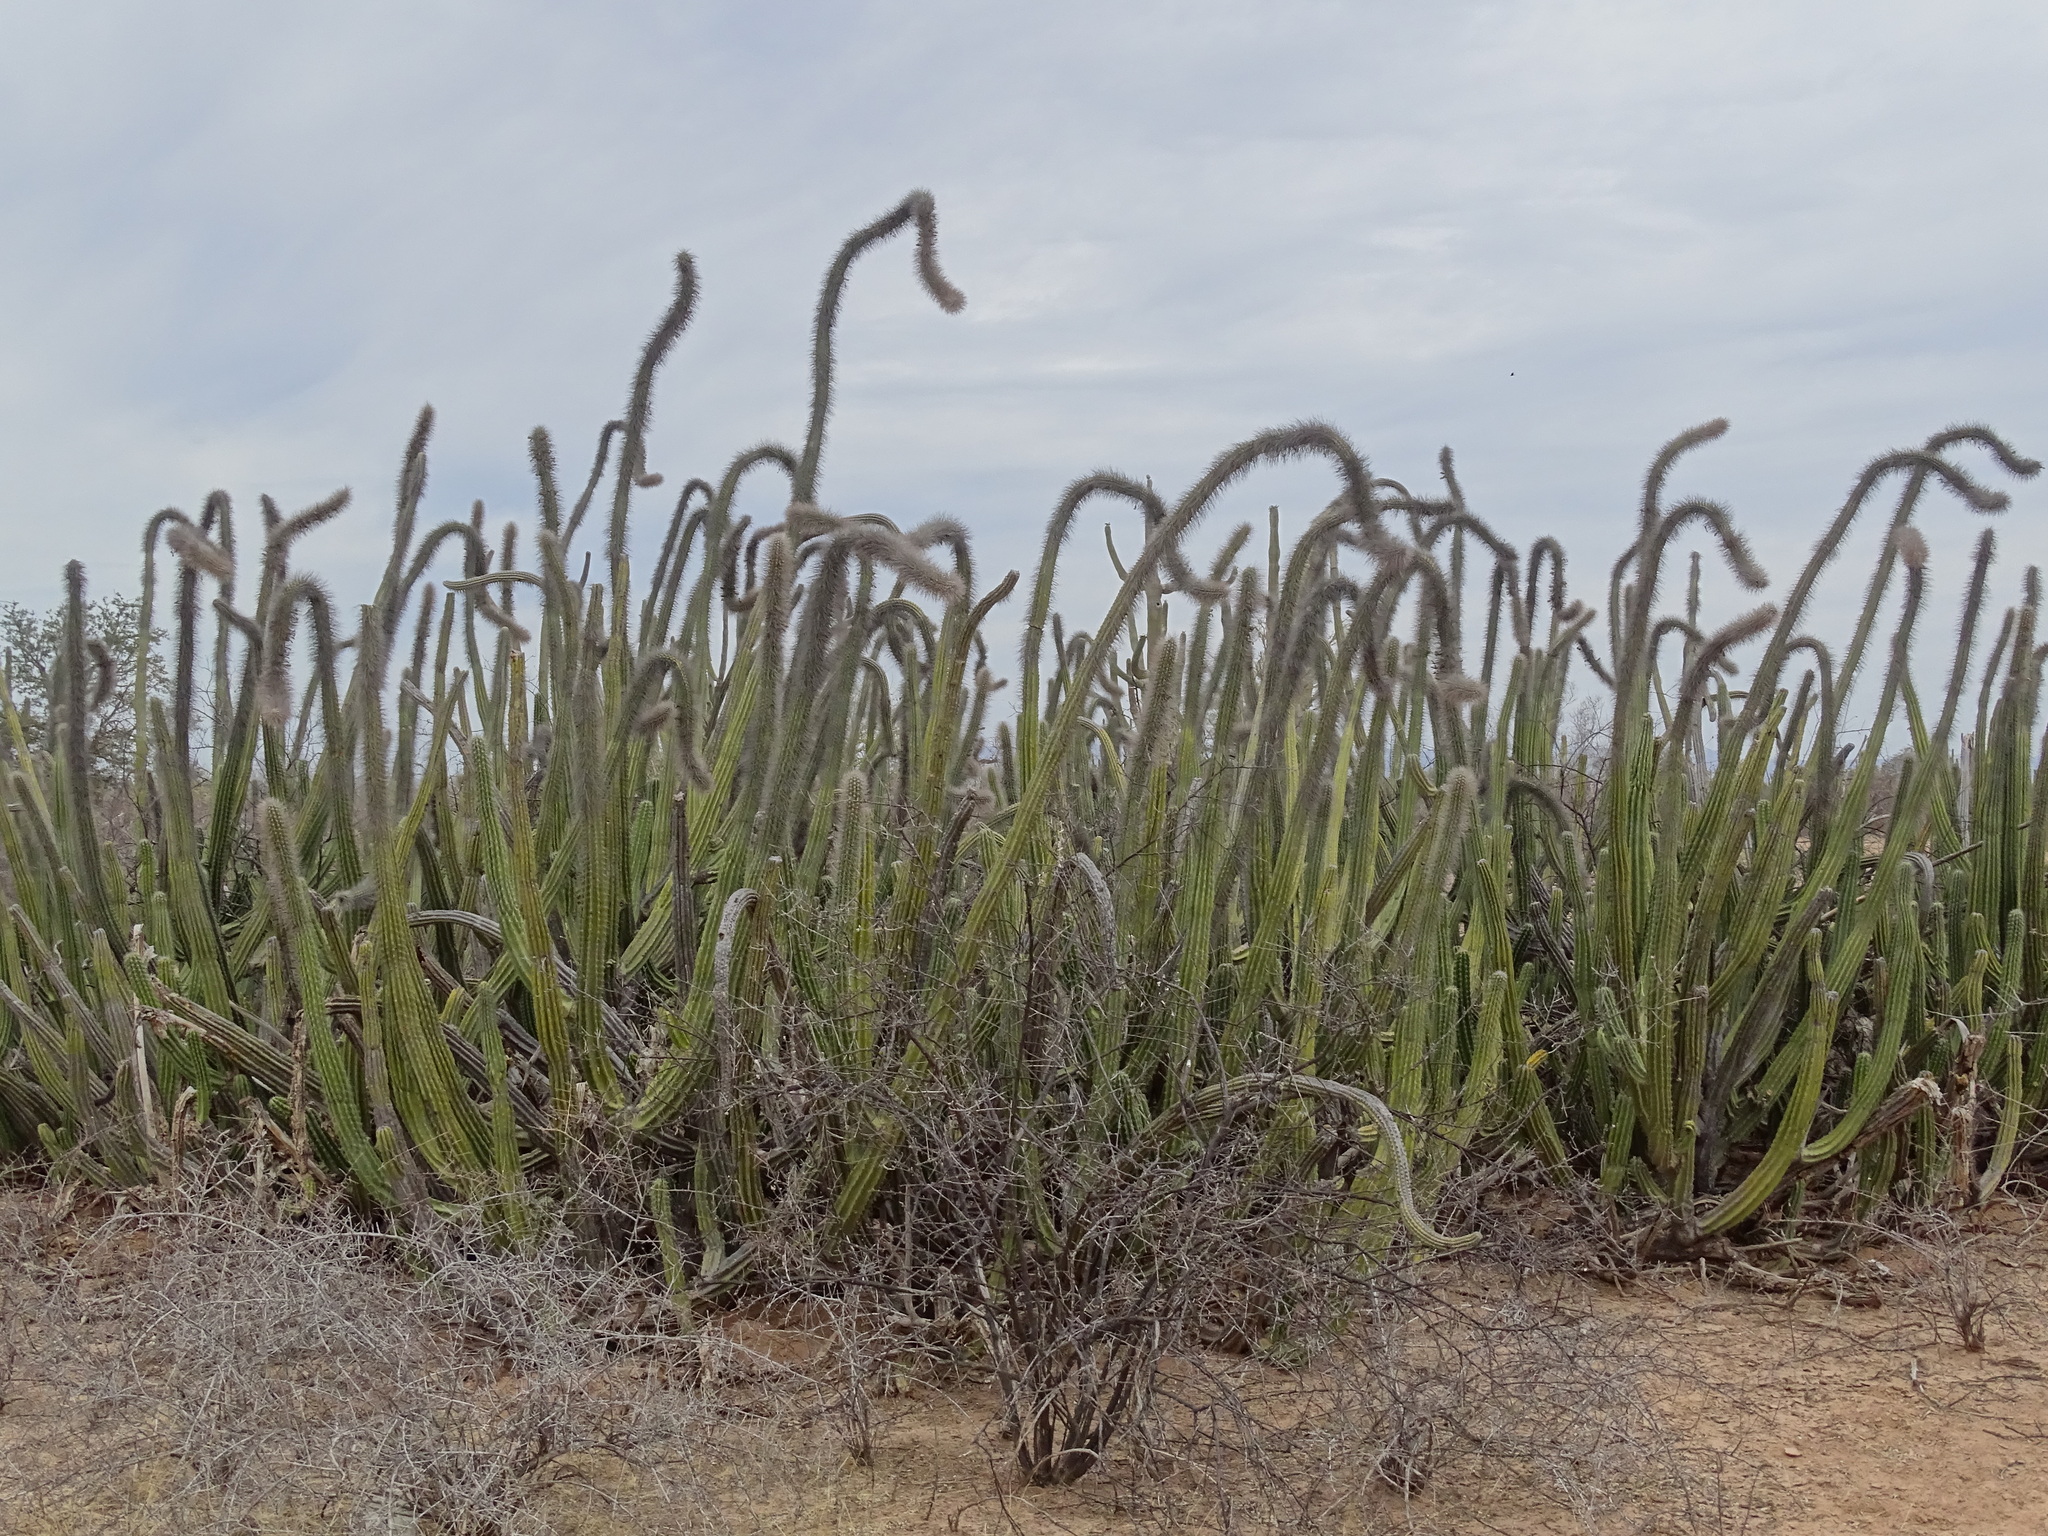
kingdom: Plantae
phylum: Tracheophyta
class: Magnoliopsida
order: Caryophyllales
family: Cactaceae
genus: Pachycereus
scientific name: Pachycereus schottii
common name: Senita cactus
